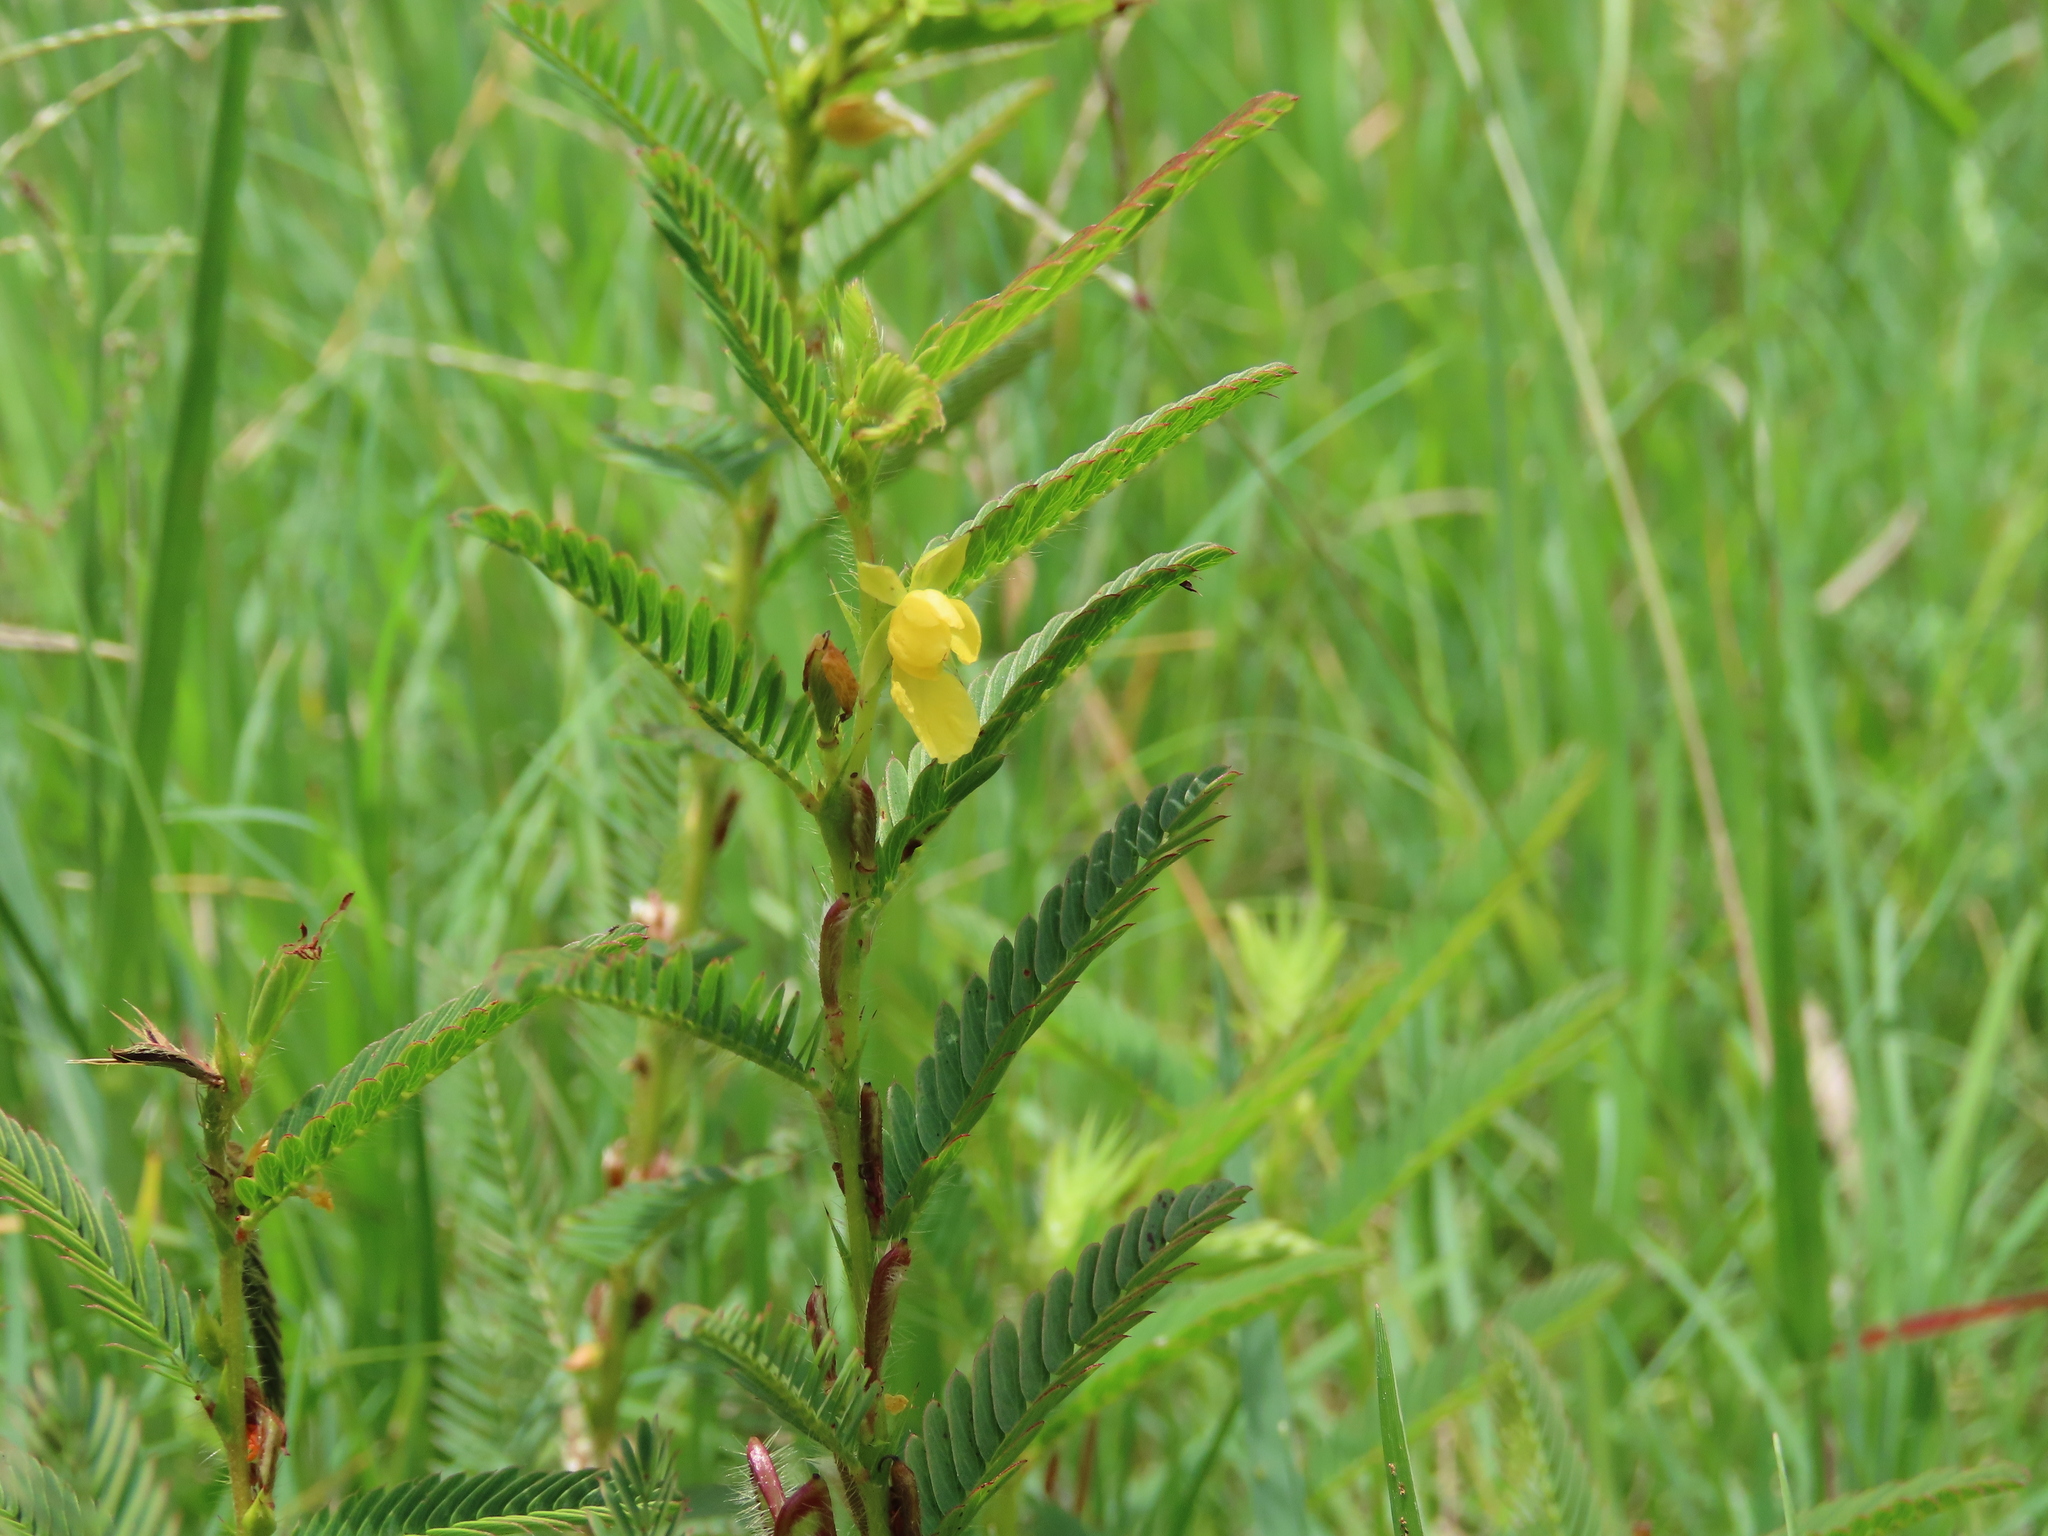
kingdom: Plantae
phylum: Tracheophyta
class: Magnoliopsida
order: Fabales
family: Fabaceae
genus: Chamaecrista
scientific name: Chamaecrista nictitans
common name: Sensitive cassia
